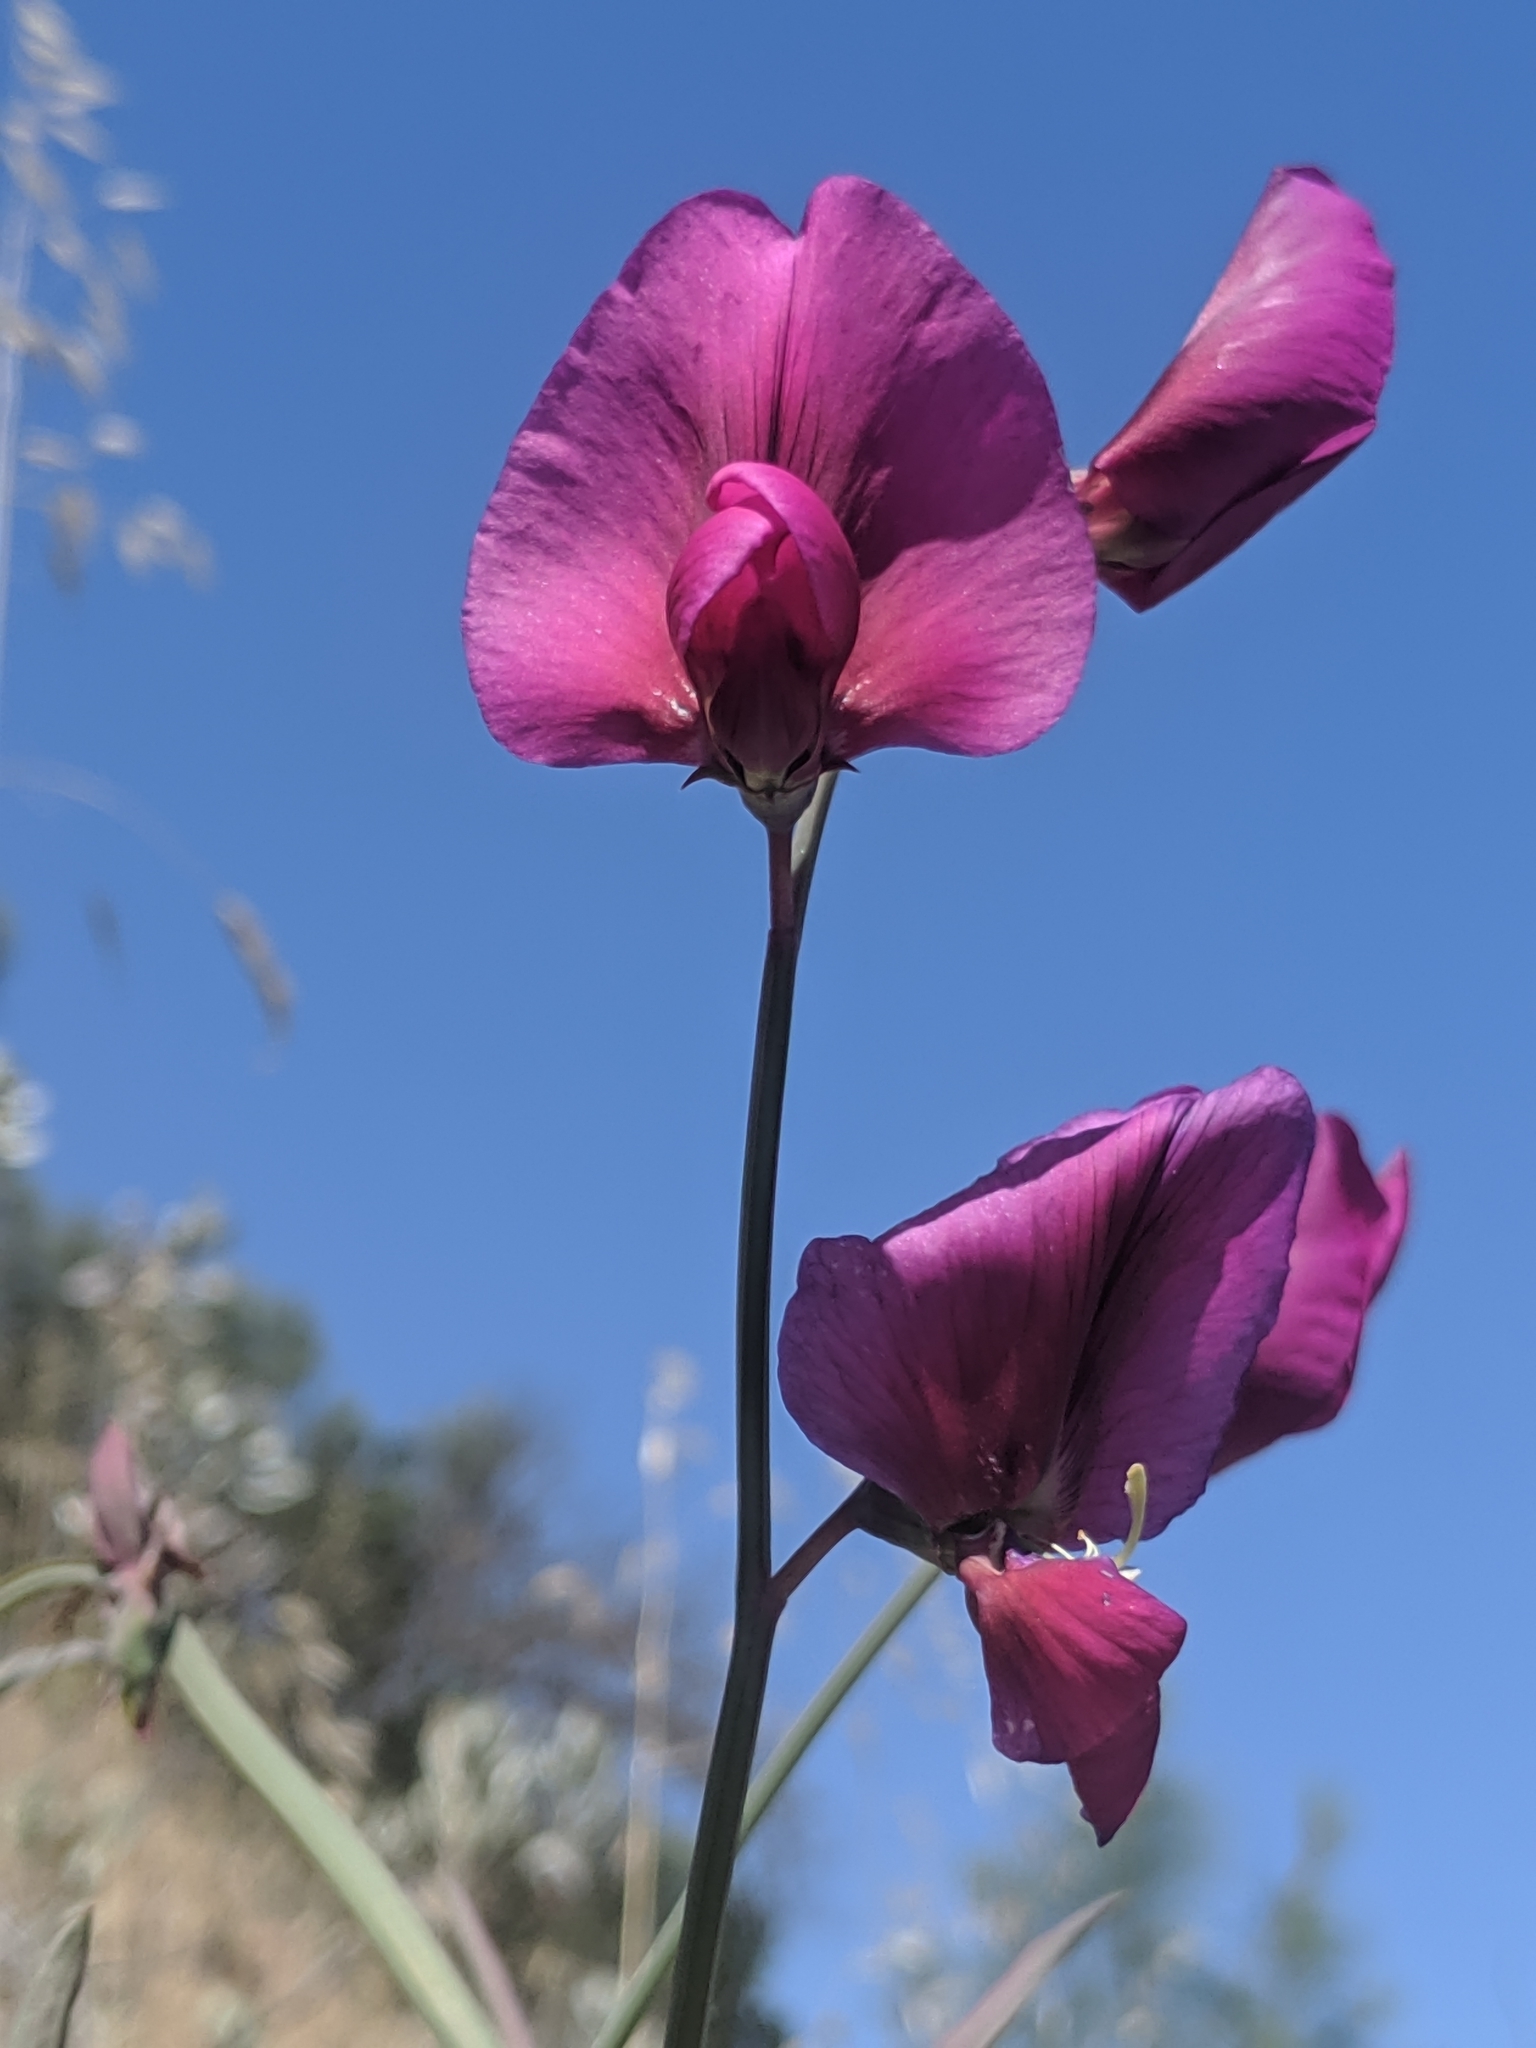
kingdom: Plantae
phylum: Tracheophyta
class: Magnoliopsida
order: Fabales
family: Fabaceae
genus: Lathyrus
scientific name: Lathyrus tingitanus
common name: Tangier pea
